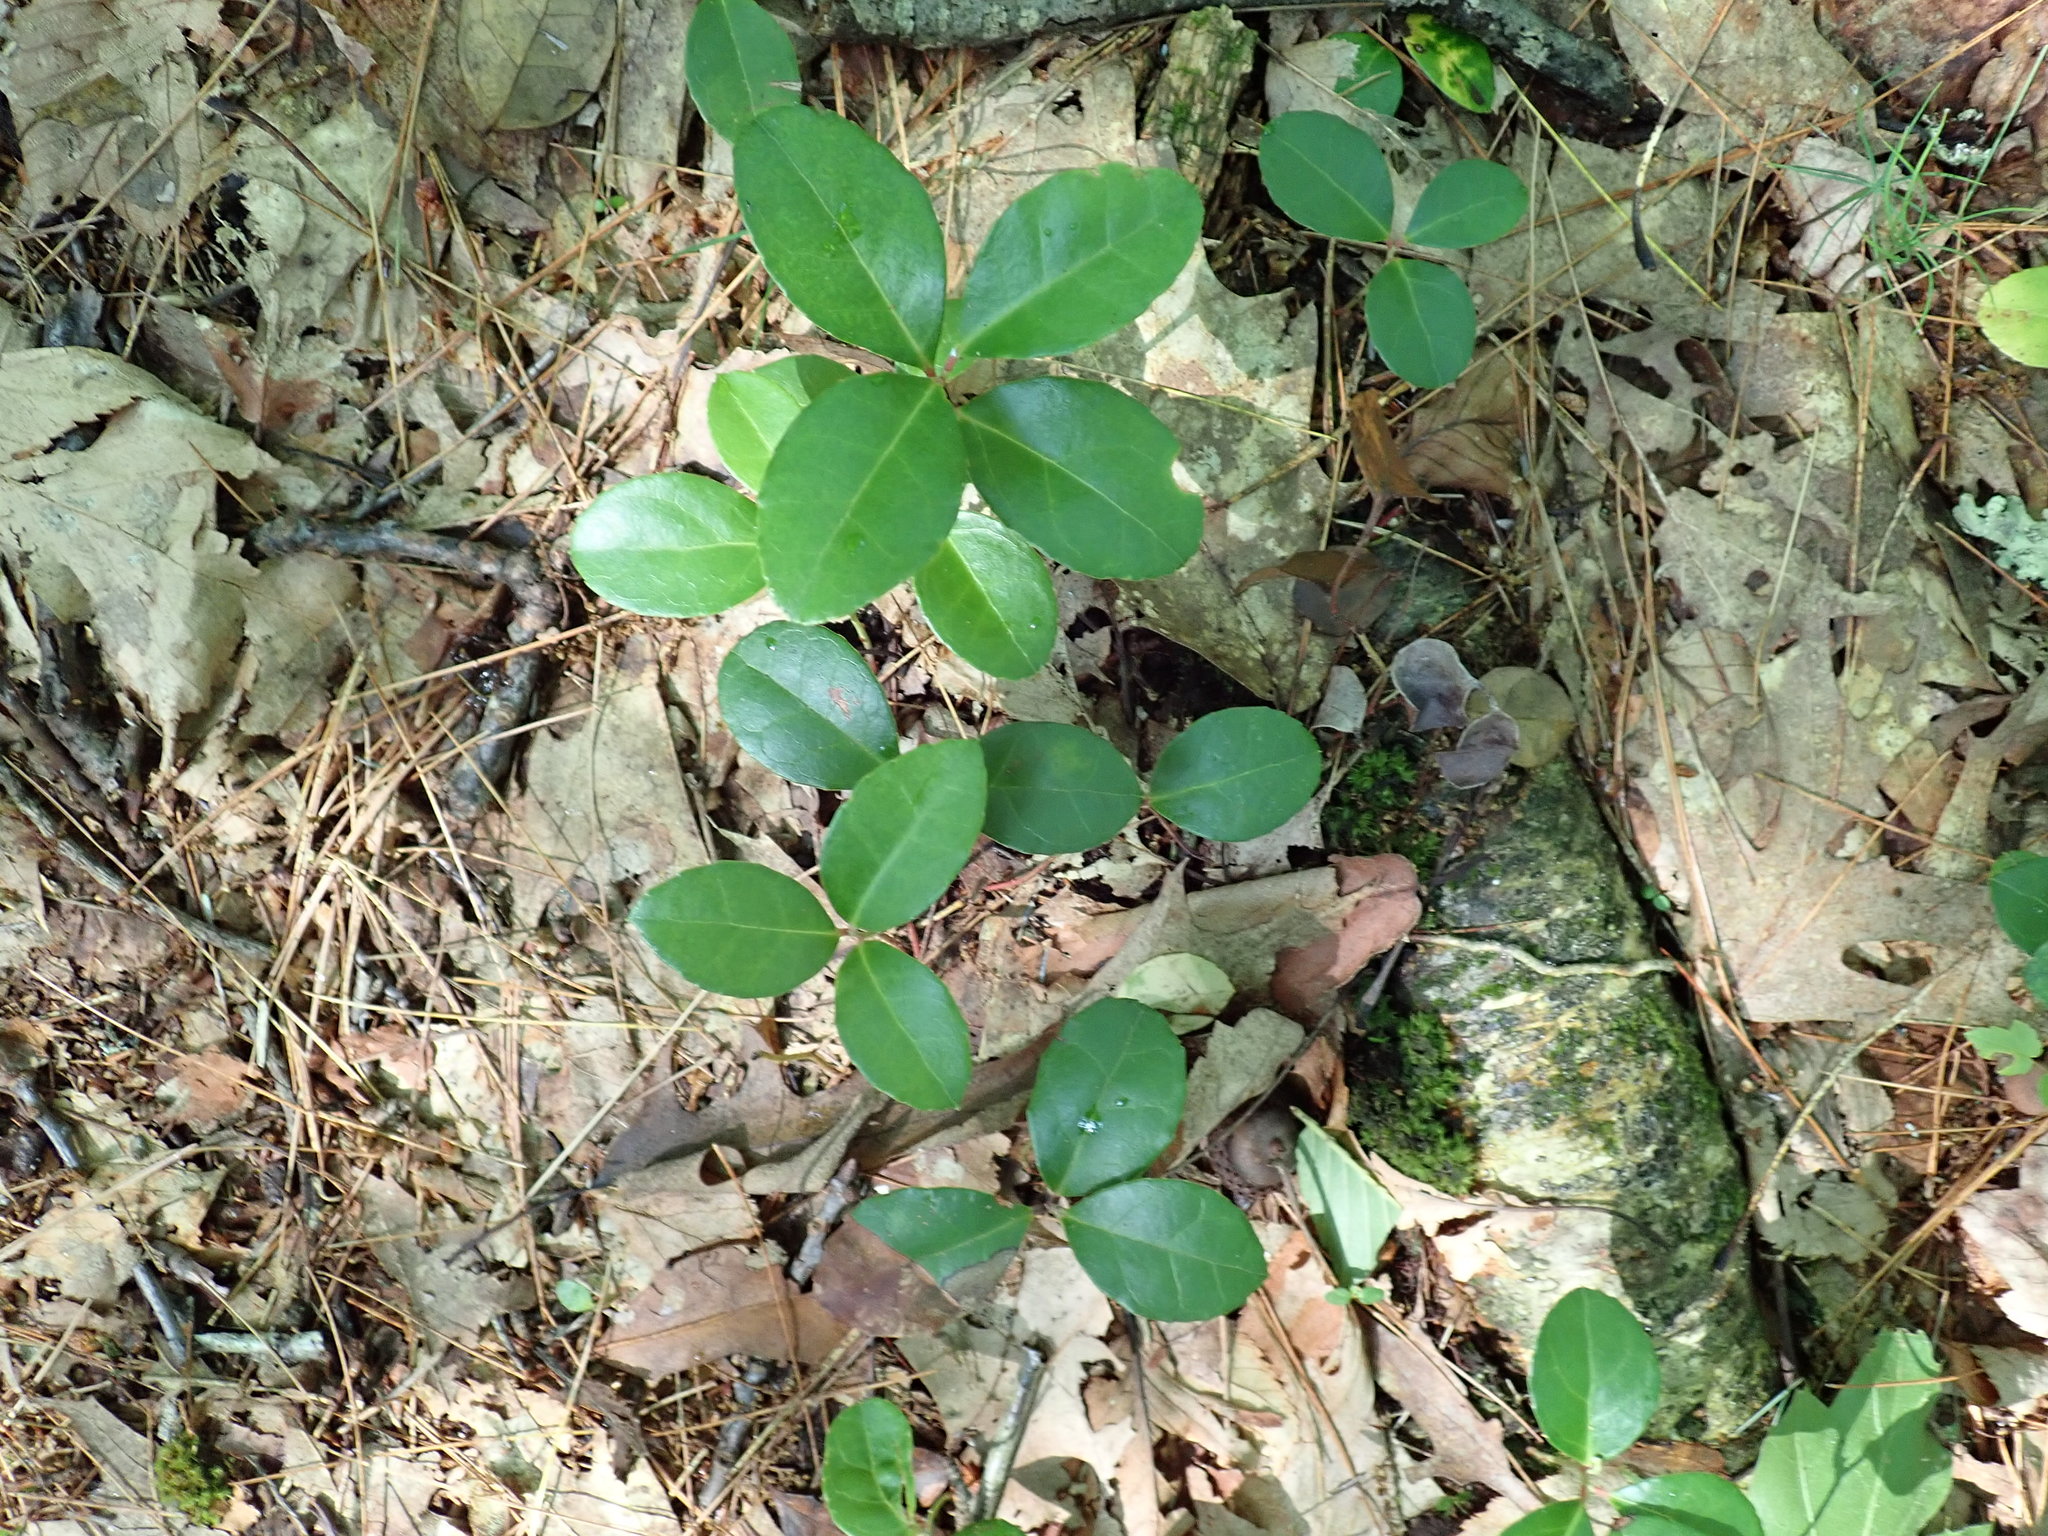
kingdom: Plantae
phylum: Tracheophyta
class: Magnoliopsida
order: Ericales
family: Ericaceae
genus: Gaultheria
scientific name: Gaultheria procumbens
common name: Checkerberry
